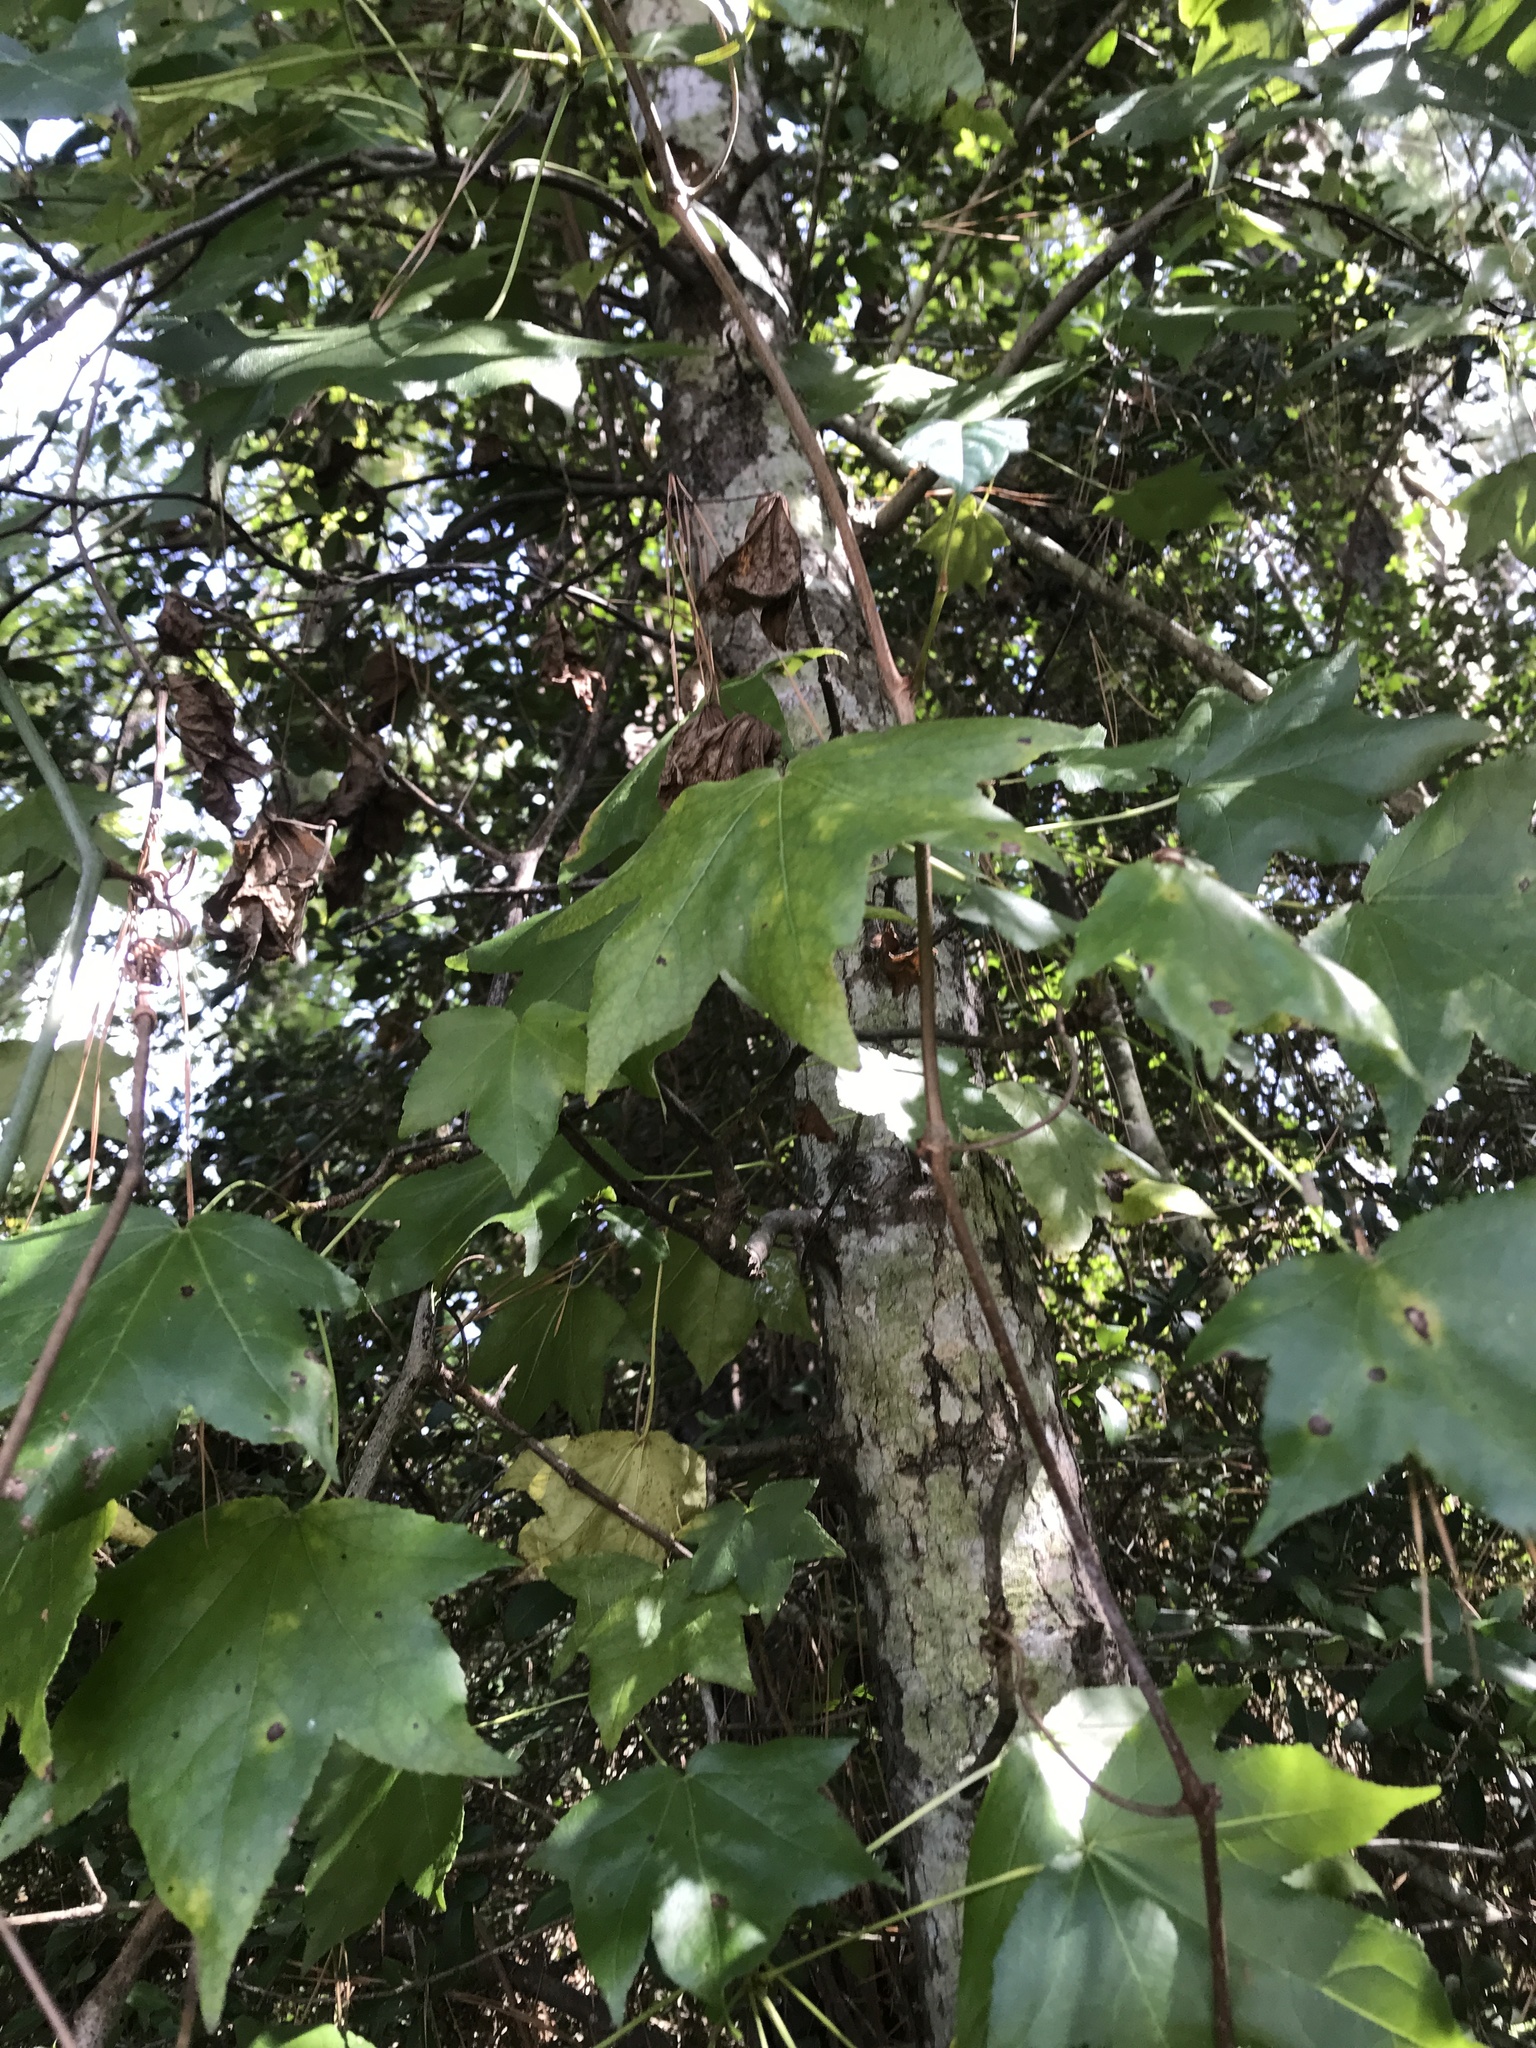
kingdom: Plantae
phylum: Tracheophyta
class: Magnoliopsida
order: Saxifragales
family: Altingiaceae
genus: Liquidambar
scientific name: Liquidambar styraciflua
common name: Sweet gum
